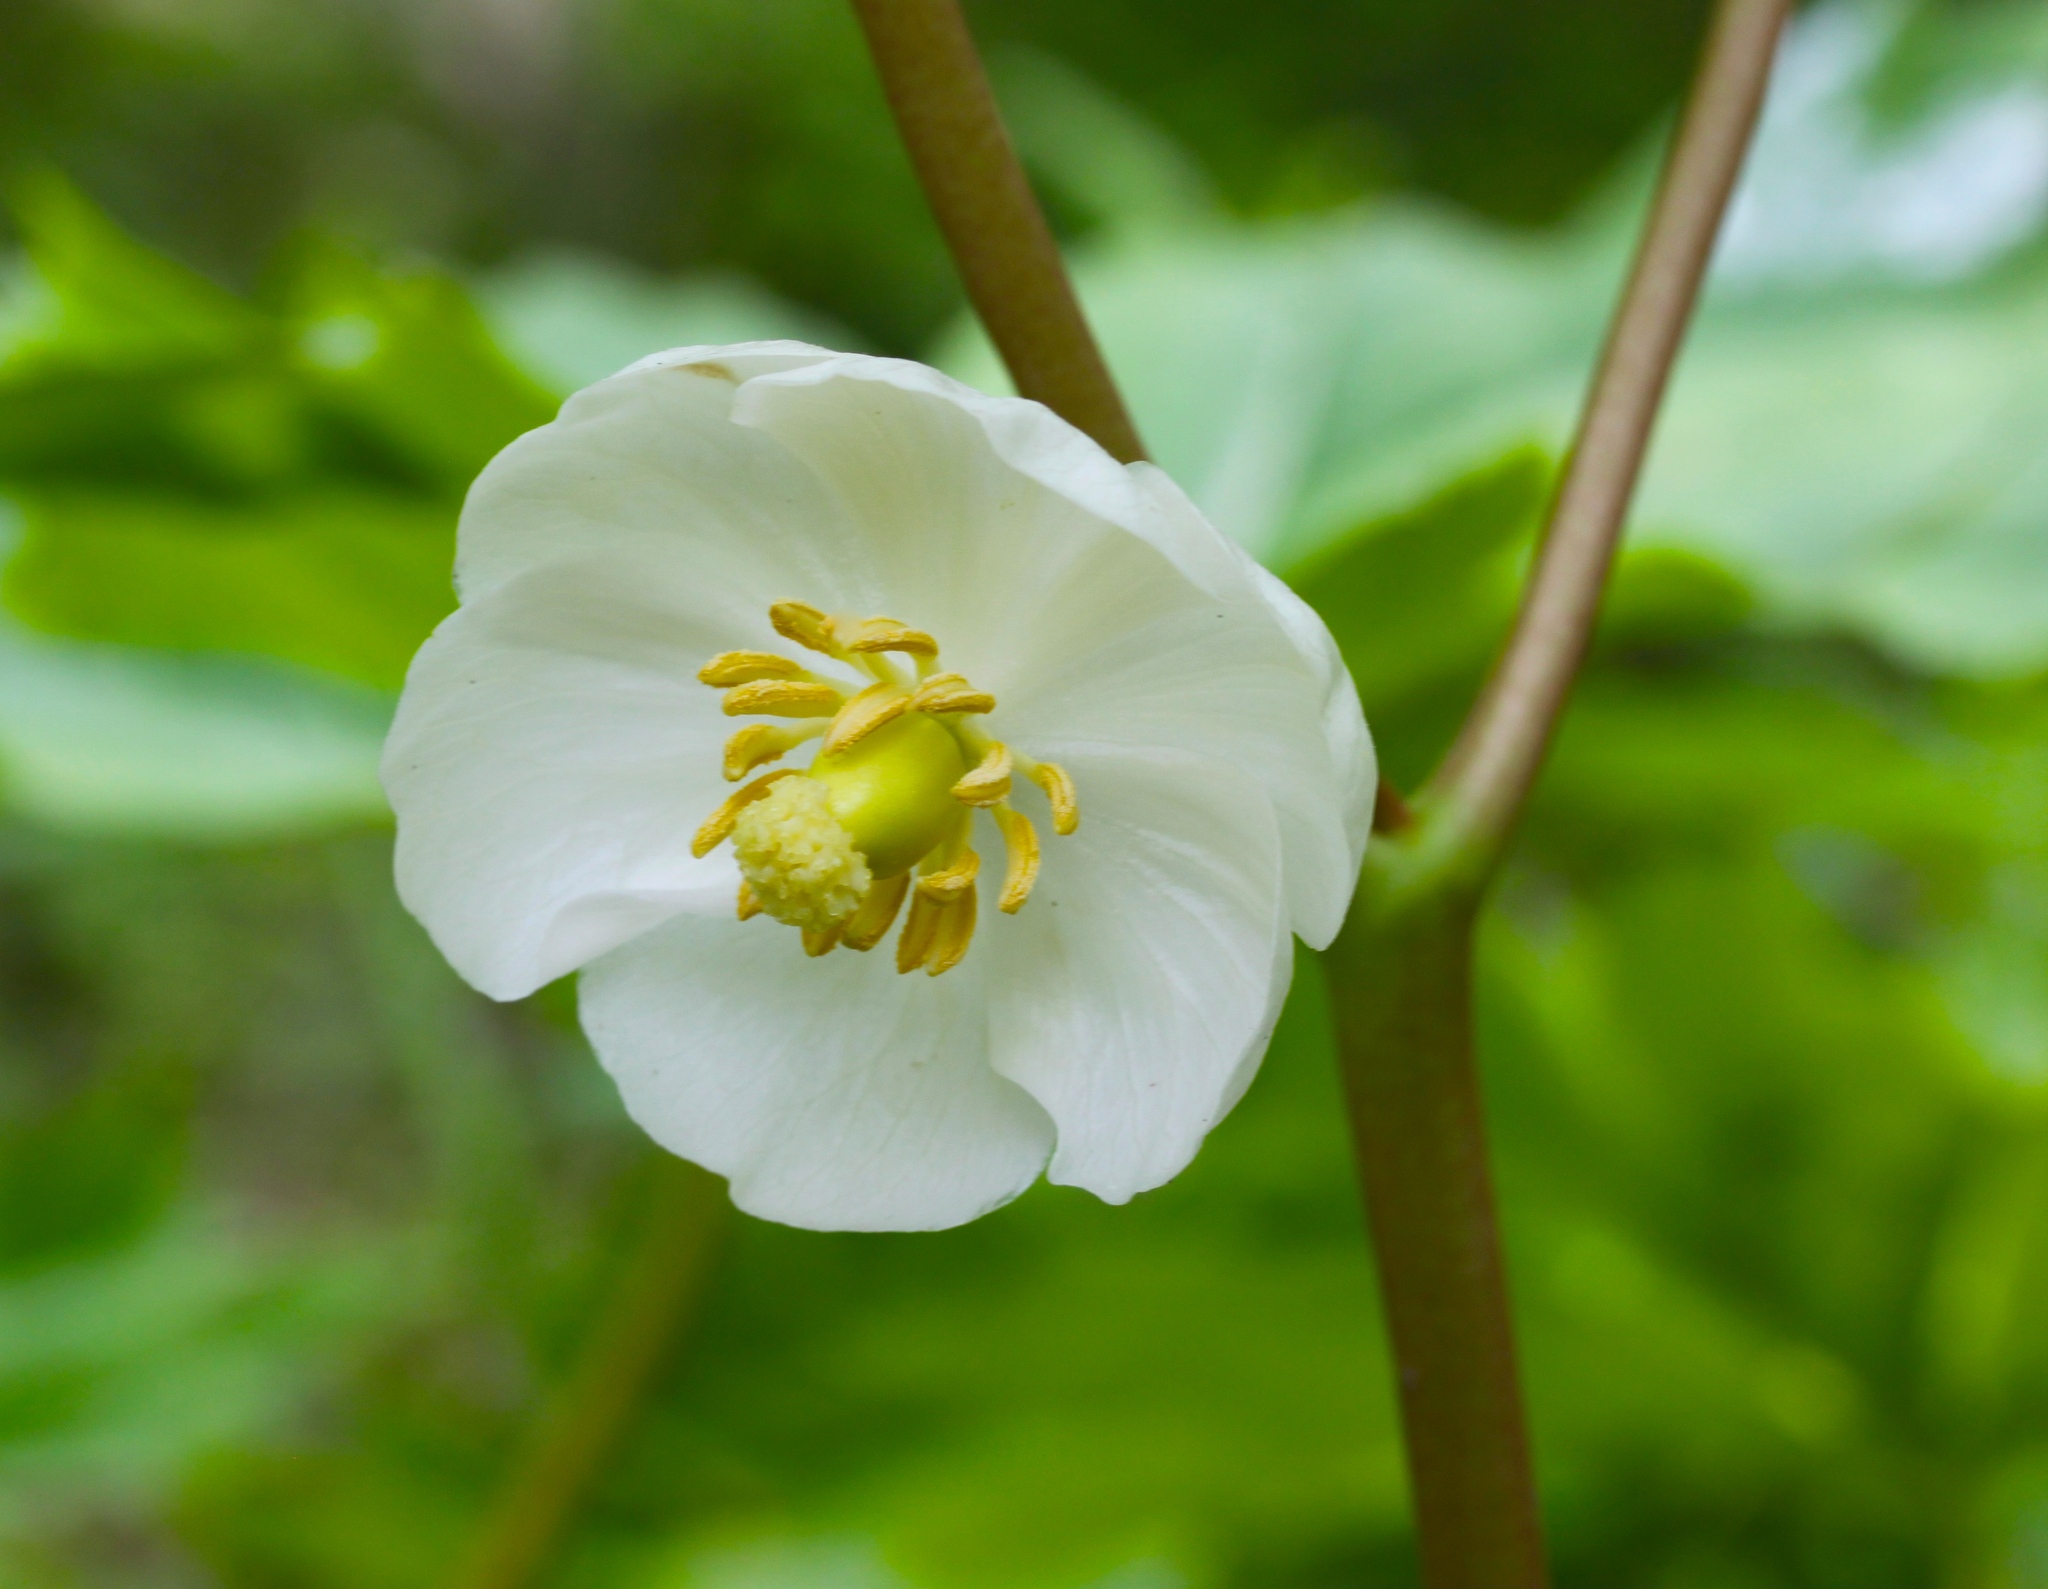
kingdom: Plantae
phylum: Tracheophyta
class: Magnoliopsida
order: Ranunculales
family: Berberidaceae
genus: Podophyllum
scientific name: Podophyllum peltatum
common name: Wild mandrake
